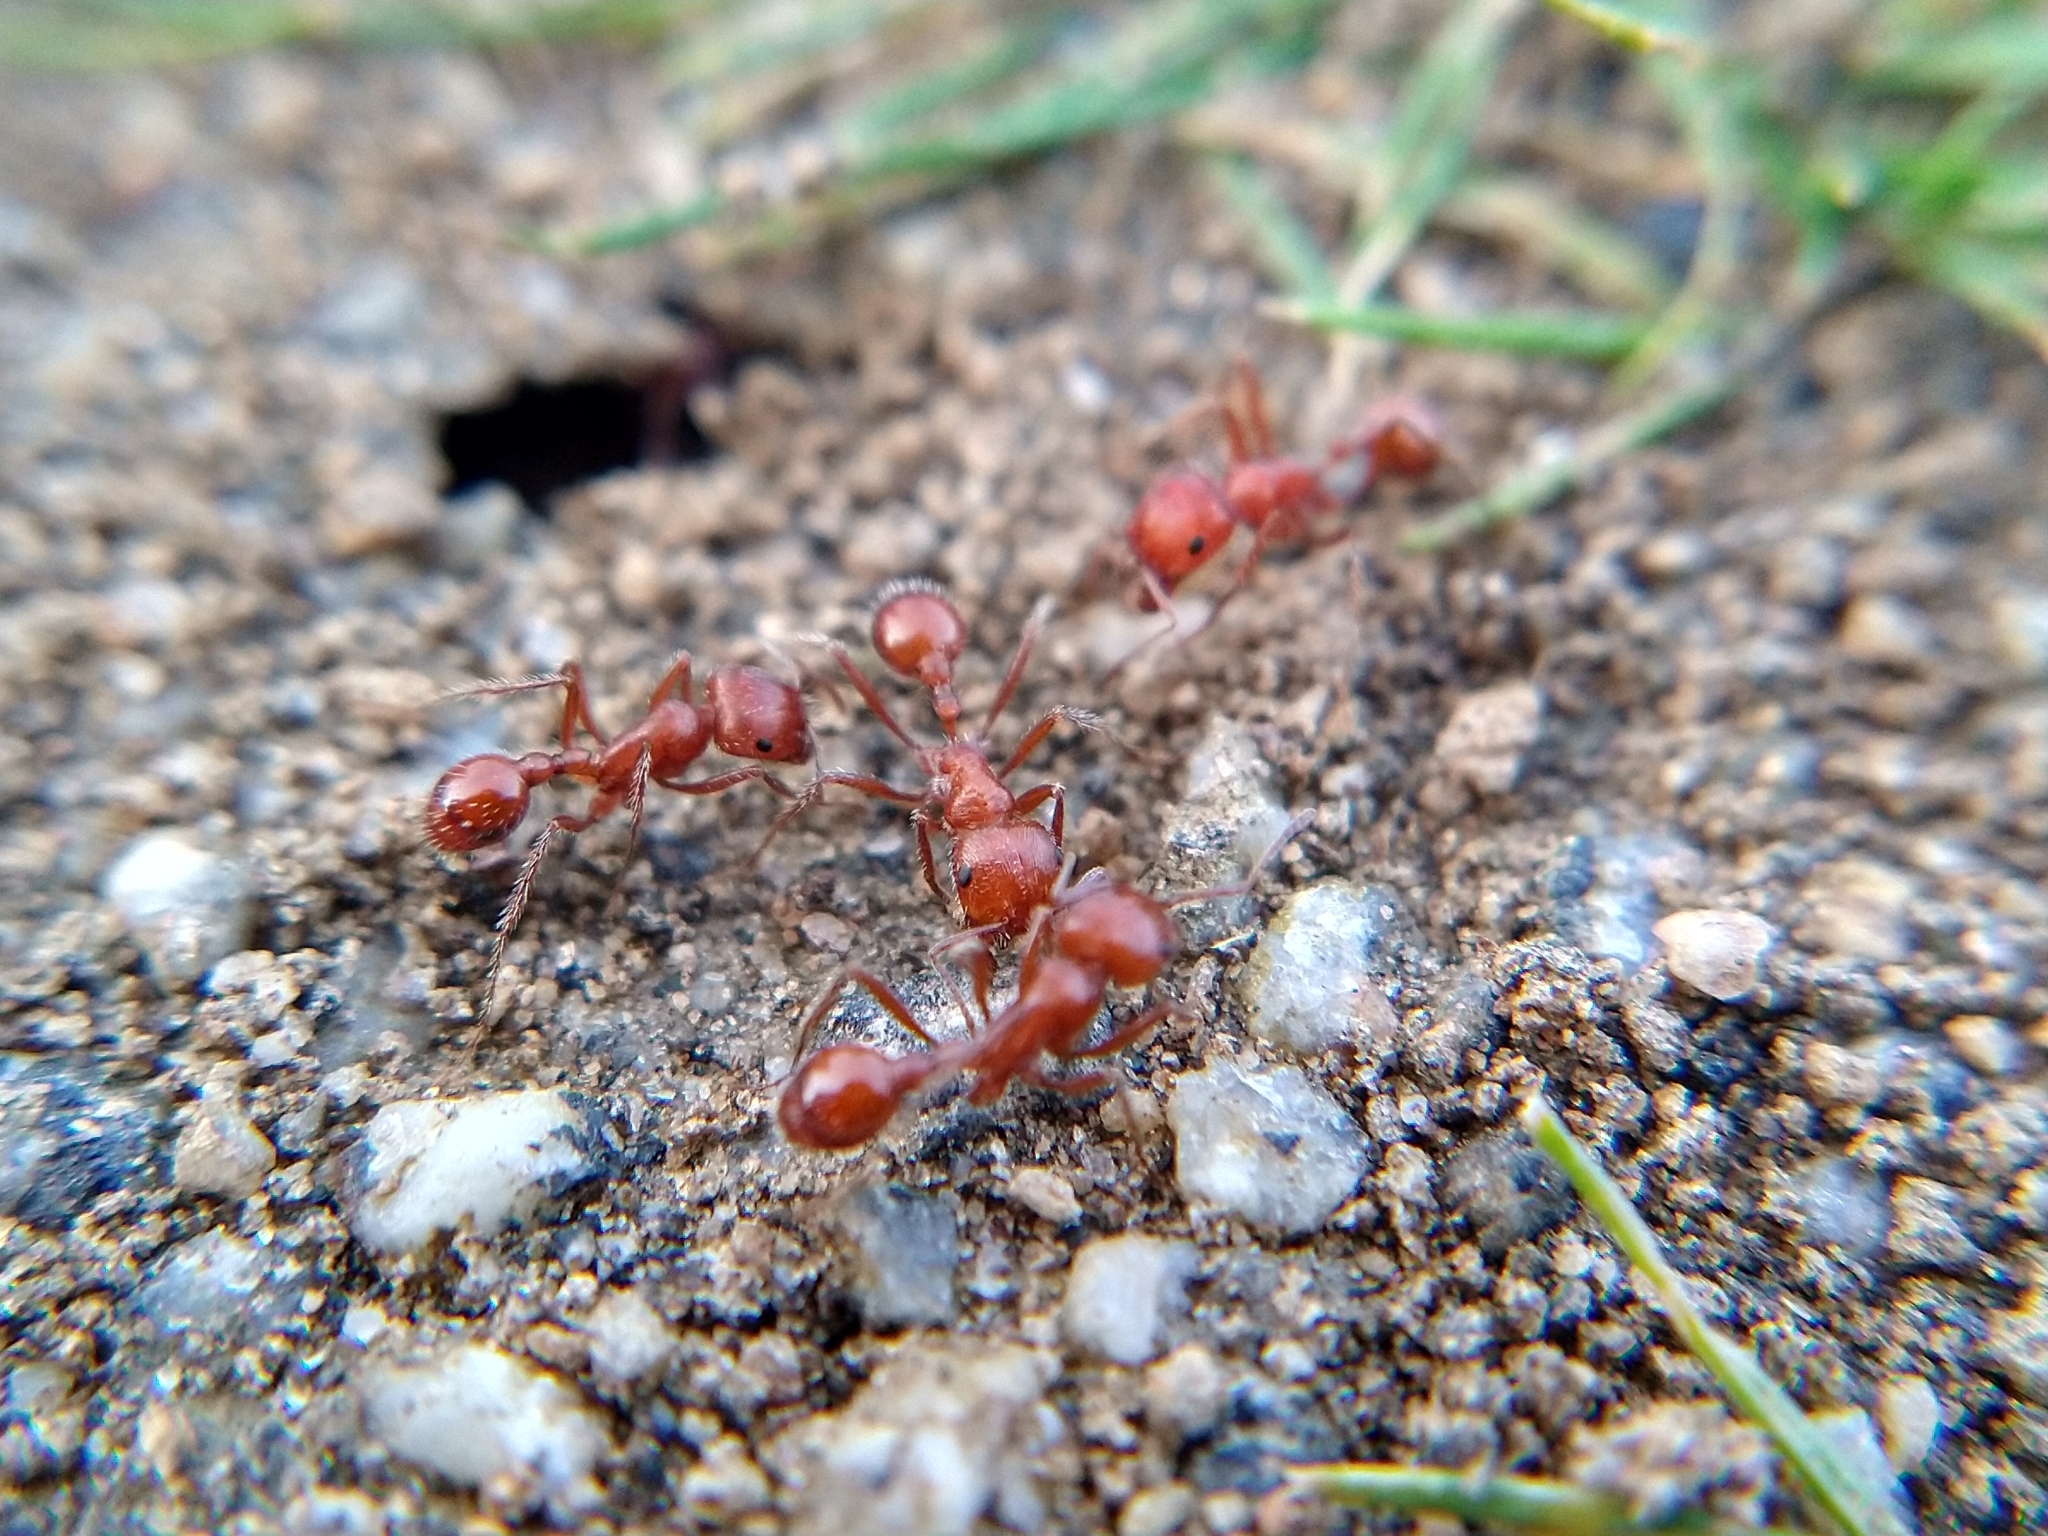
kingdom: Animalia
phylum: Arthropoda
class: Insecta
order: Hymenoptera
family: Formicidae
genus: Pogonomyrmex
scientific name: Pogonomyrmex
